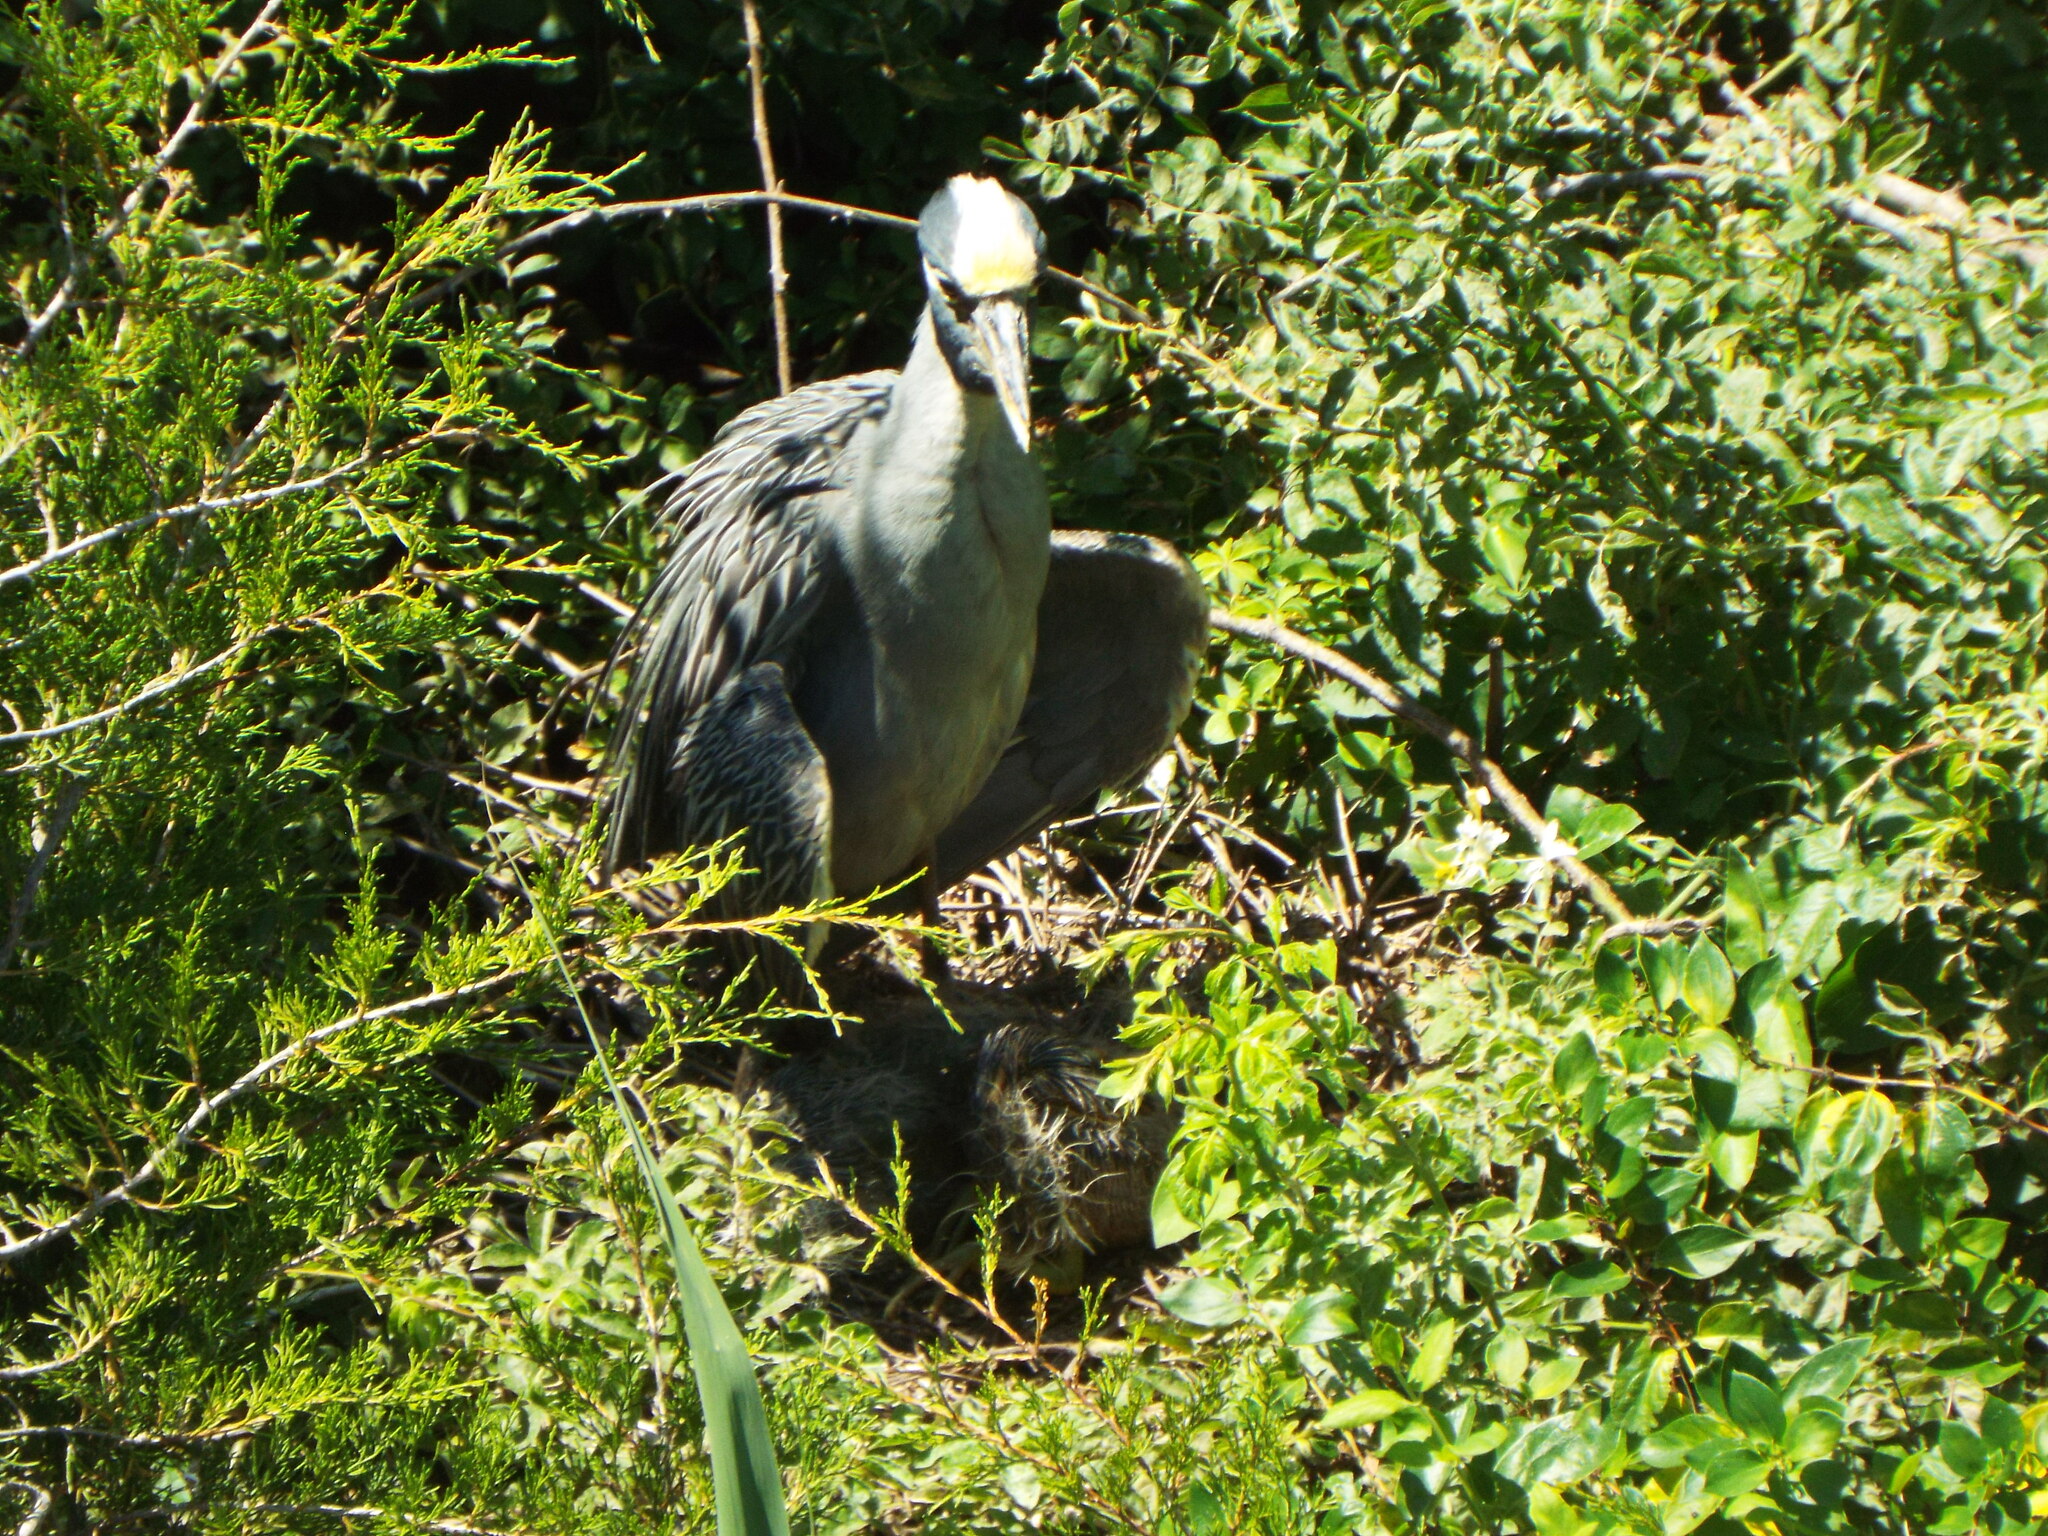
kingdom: Animalia
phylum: Chordata
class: Aves
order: Pelecaniformes
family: Ardeidae
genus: Nyctanassa
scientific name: Nyctanassa violacea
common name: Yellow-crowned night heron
